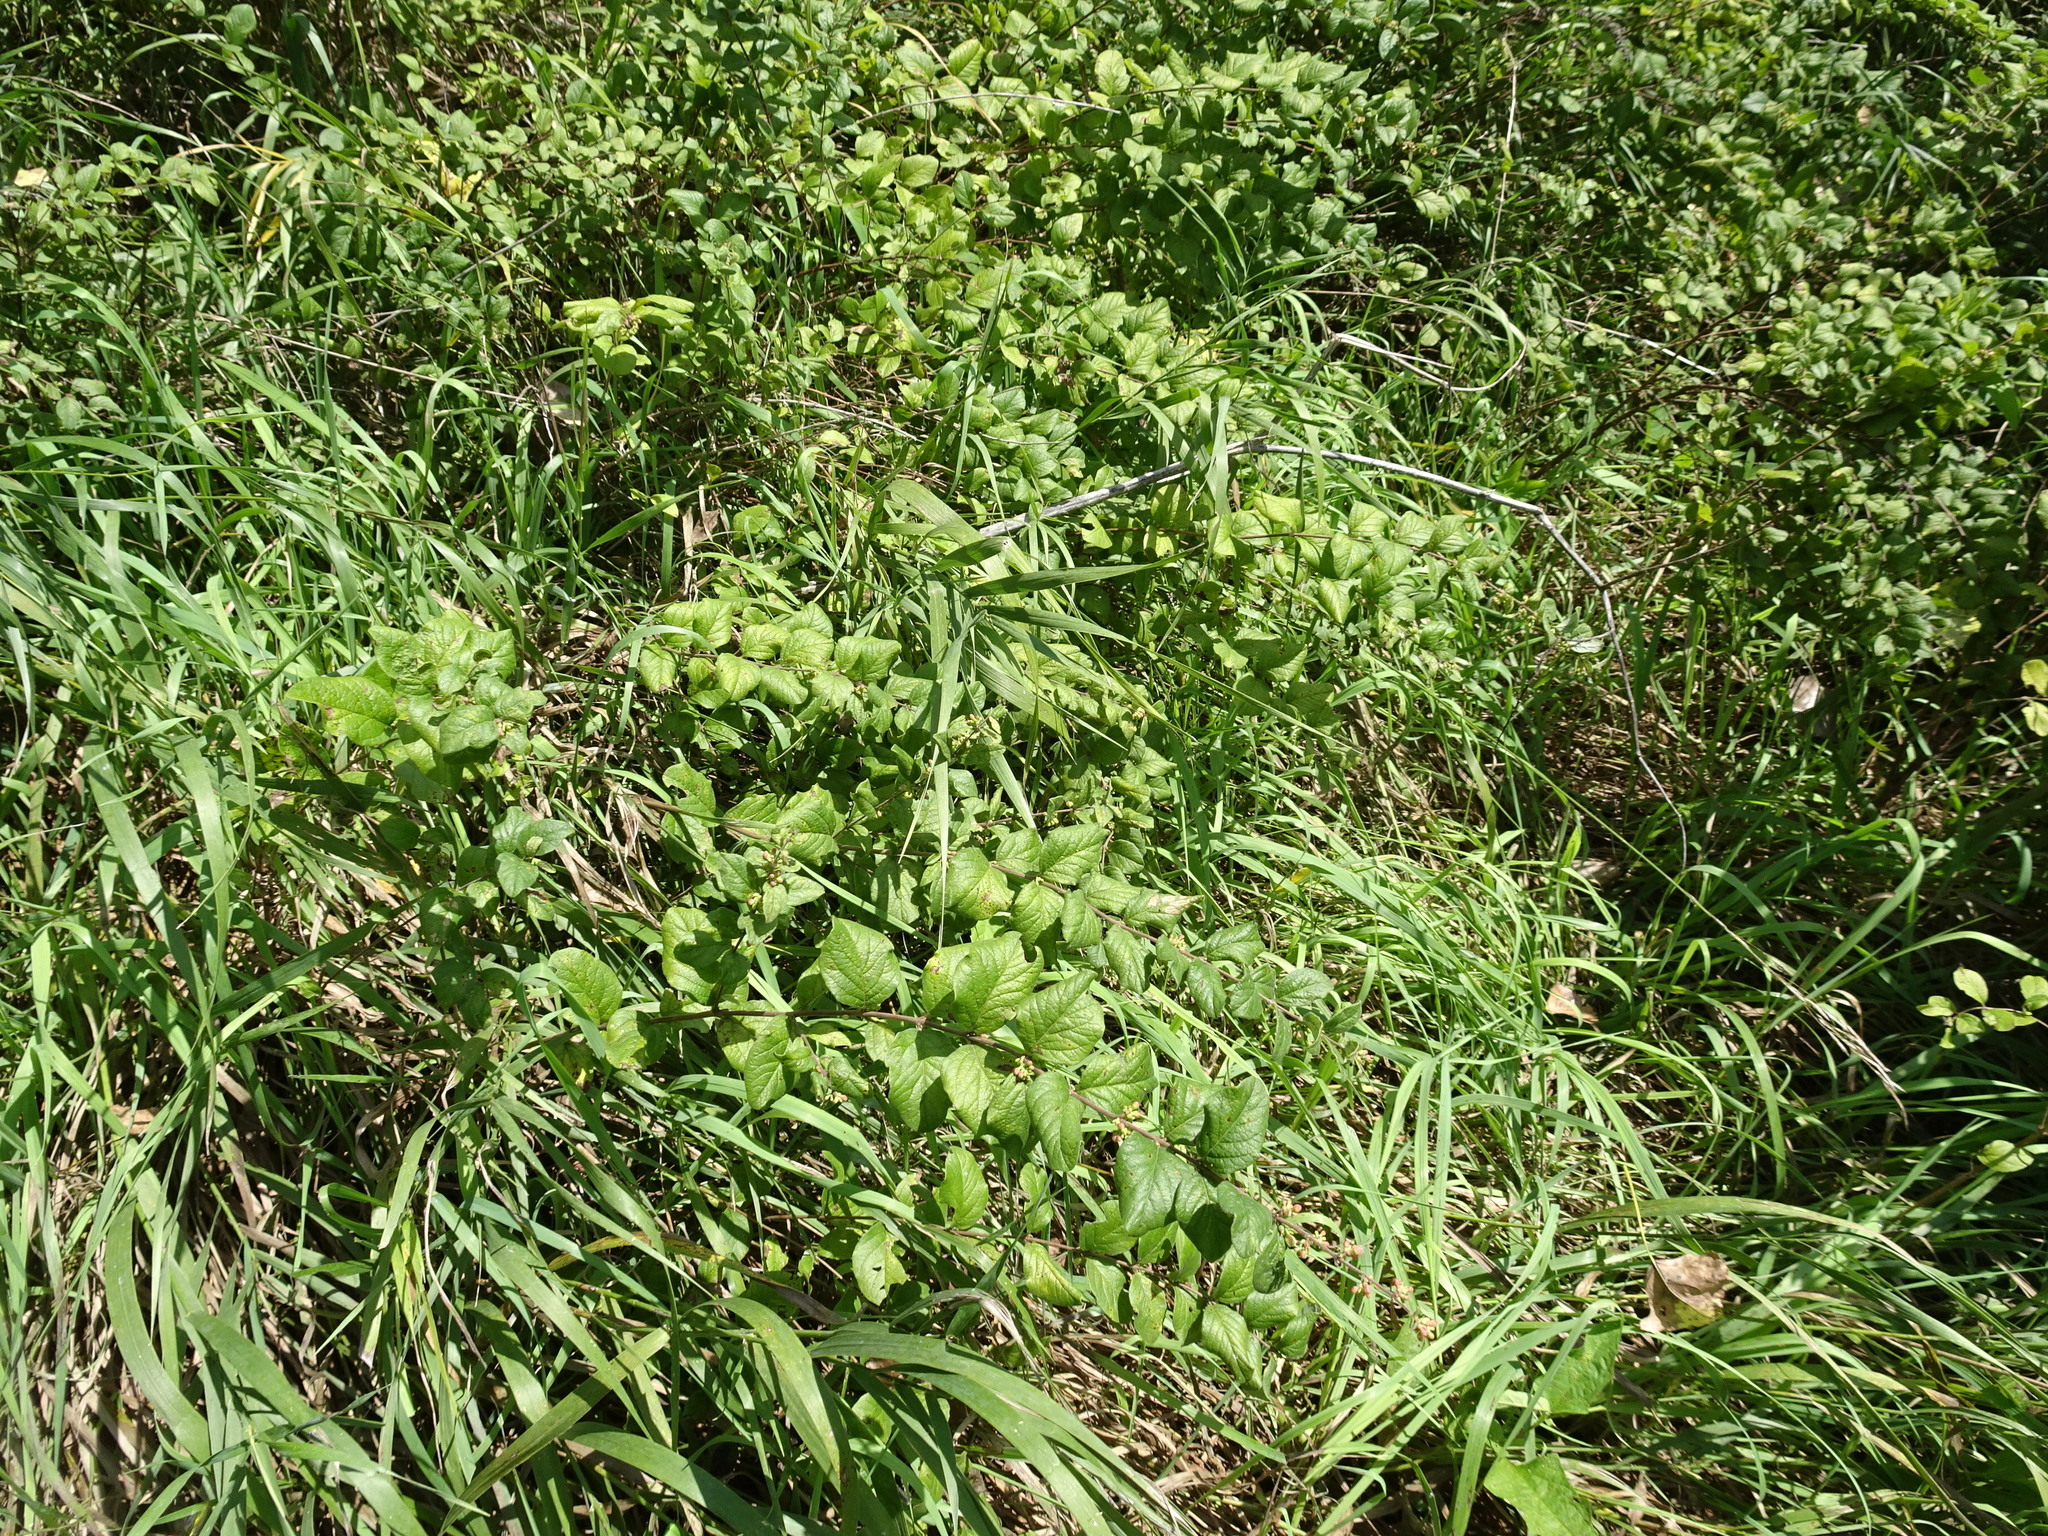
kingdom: Plantae
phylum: Tracheophyta
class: Magnoliopsida
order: Dipsacales
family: Caprifoliaceae
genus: Symphoricarpos
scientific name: Symphoricarpos orbiculatus
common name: Coralberry
